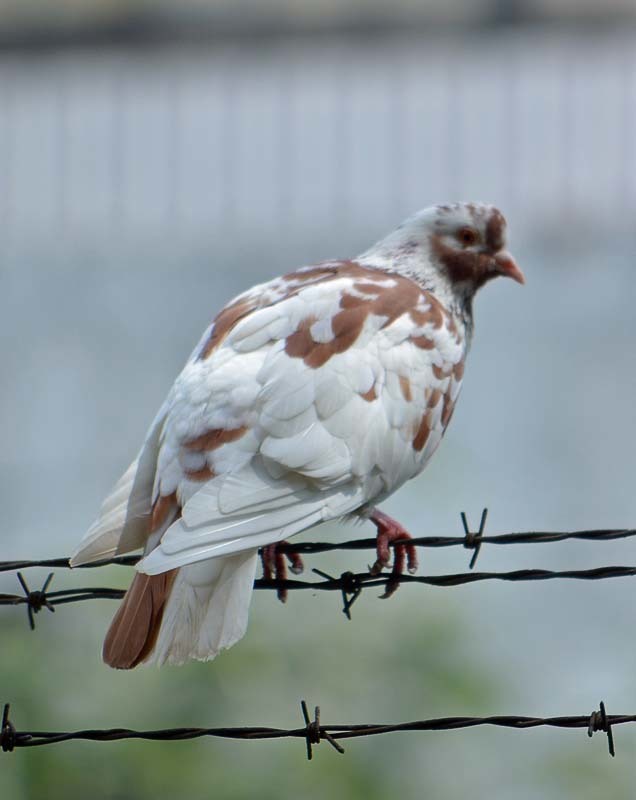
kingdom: Animalia
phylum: Chordata
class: Aves
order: Columbiformes
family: Columbidae
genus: Columba
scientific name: Columba livia
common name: Rock pigeon
